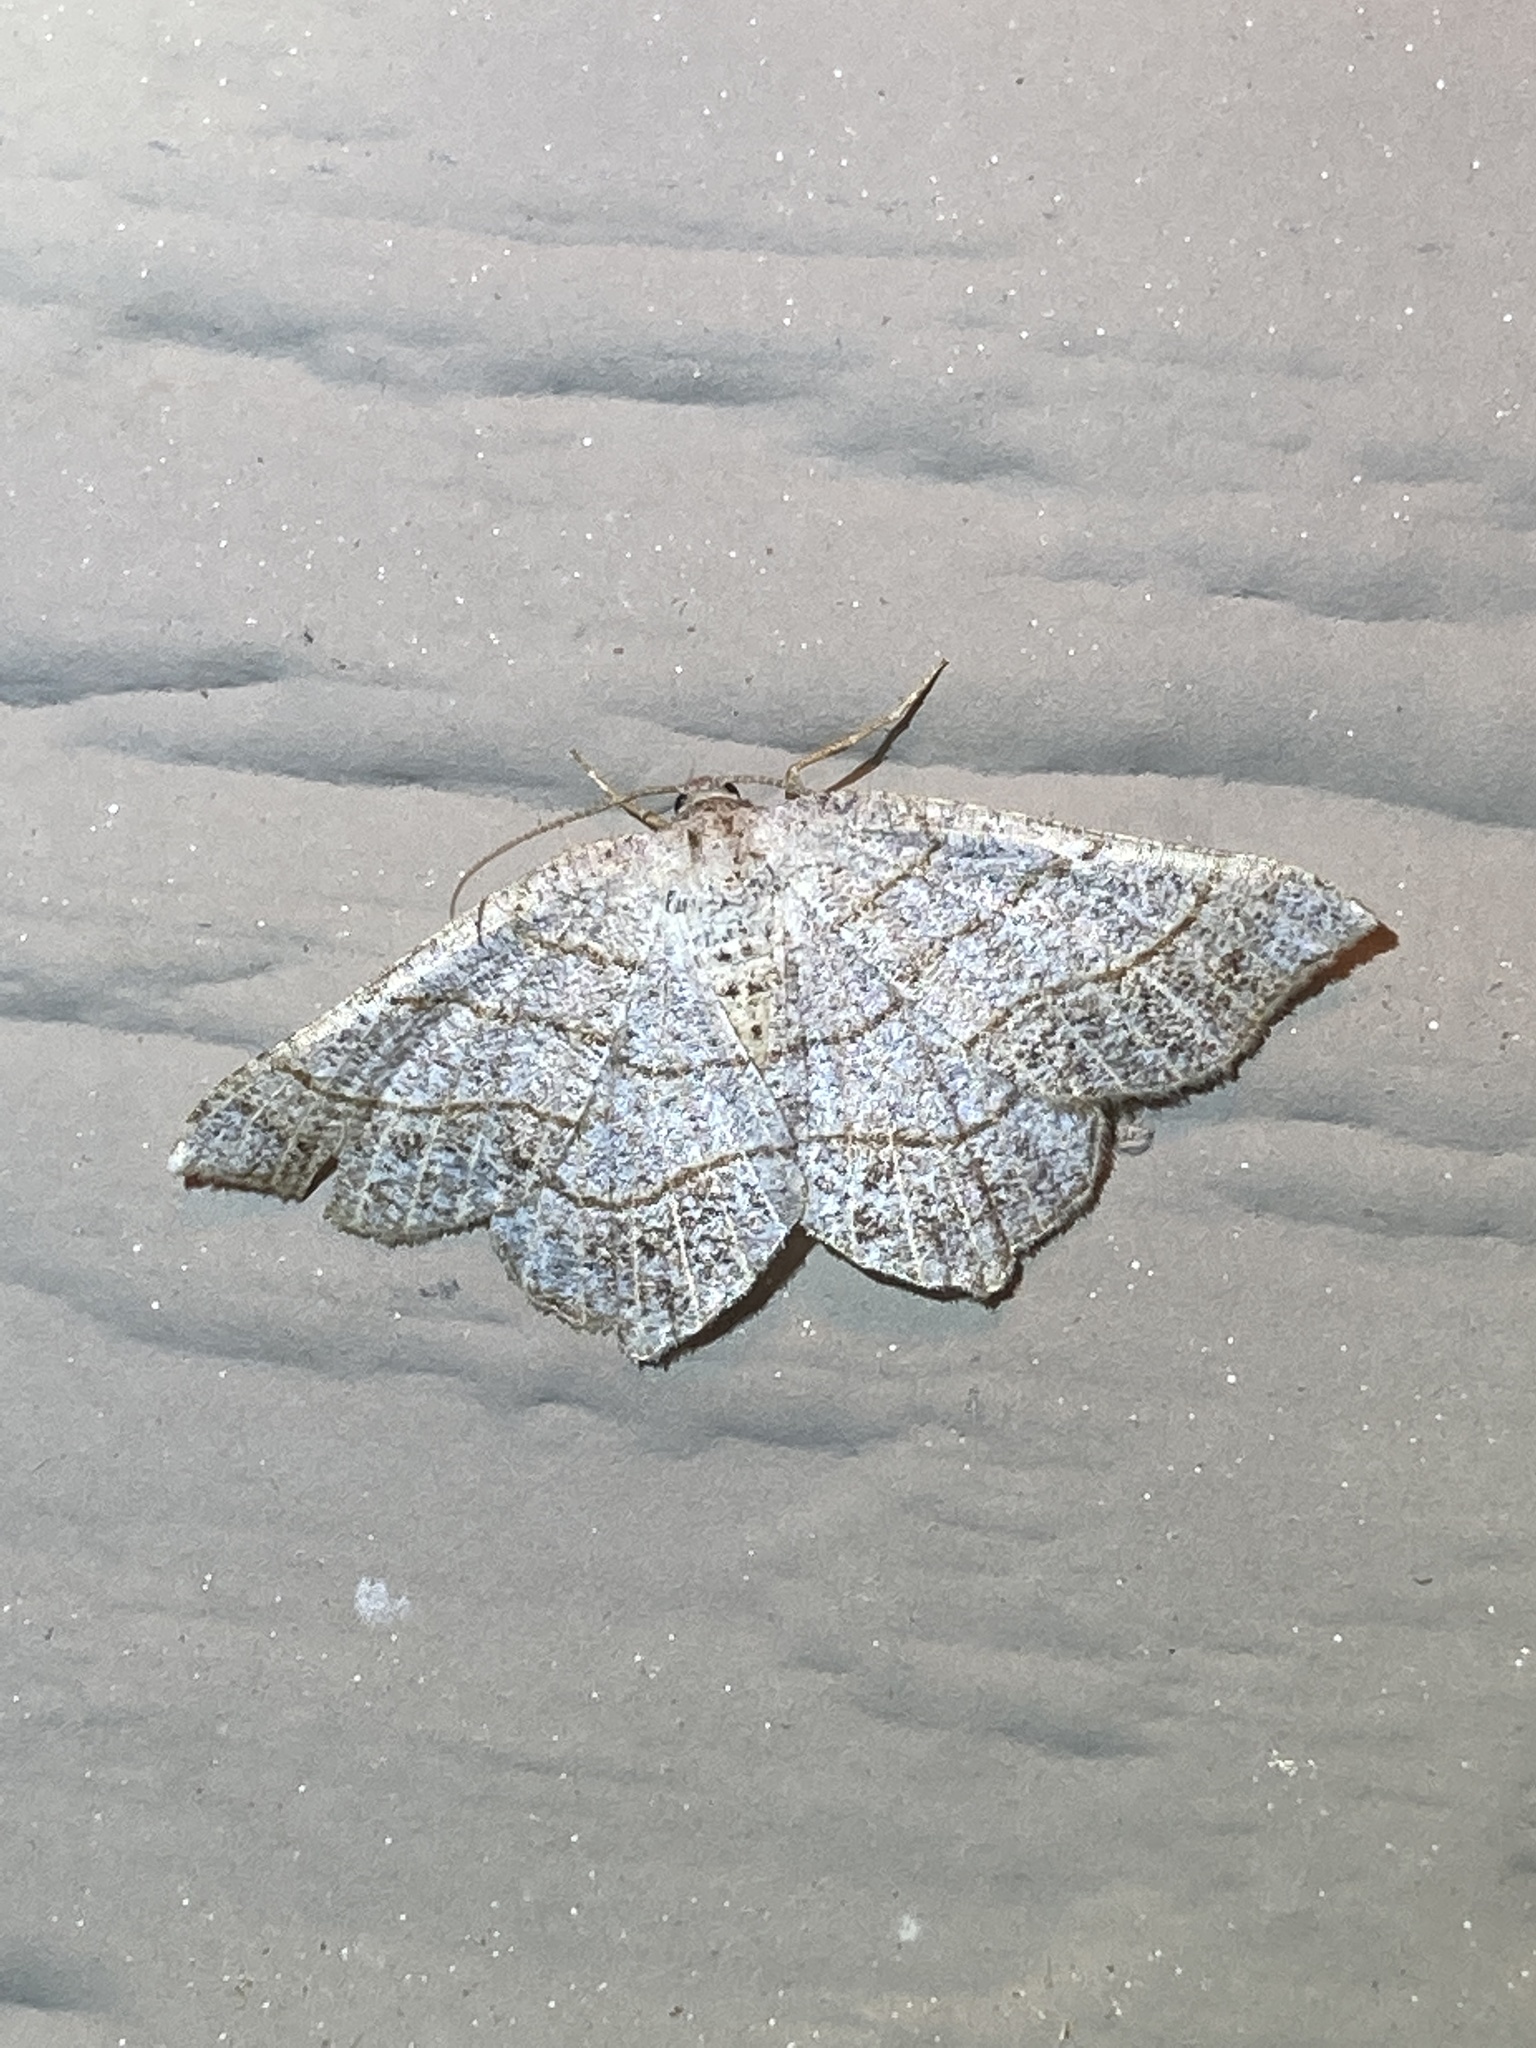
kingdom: Animalia
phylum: Arthropoda
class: Insecta
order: Lepidoptera
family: Geometridae
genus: Eumacaria
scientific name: Eumacaria madopata
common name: Brown-bordered geometer
